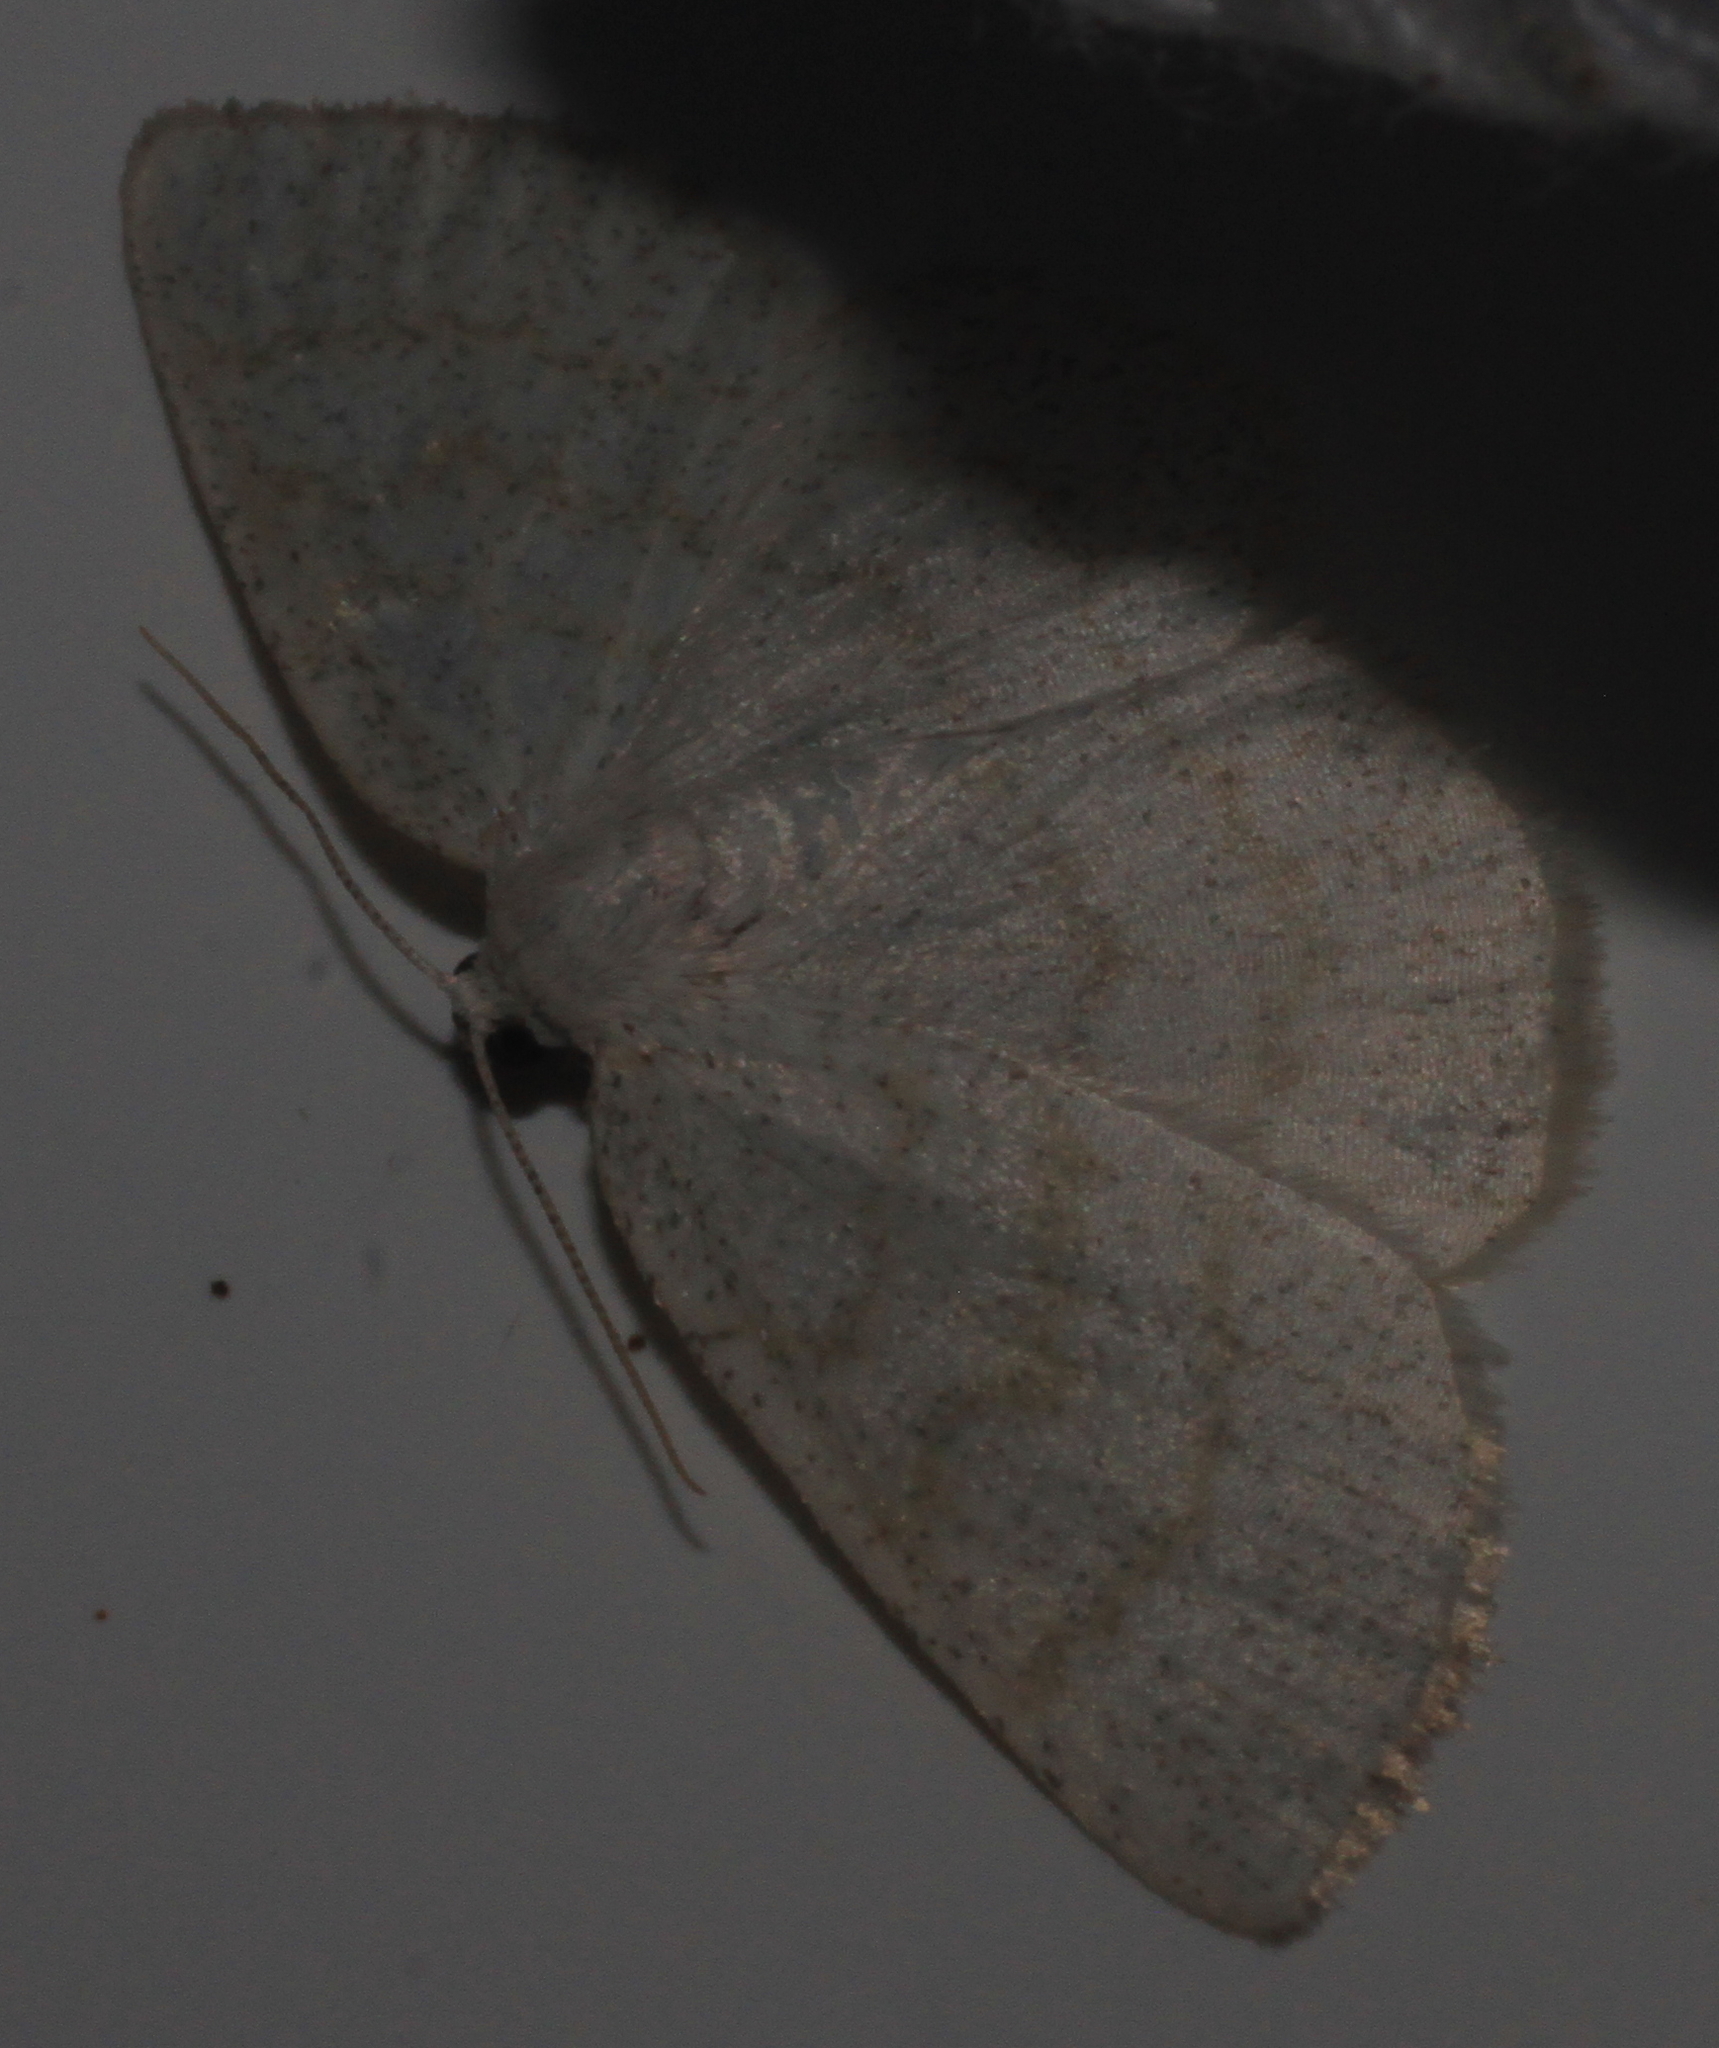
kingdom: Animalia
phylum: Arthropoda
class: Insecta
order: Lepidoptera
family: Geometridae
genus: Cabera
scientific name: Cabera exanthemata
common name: Common wave
